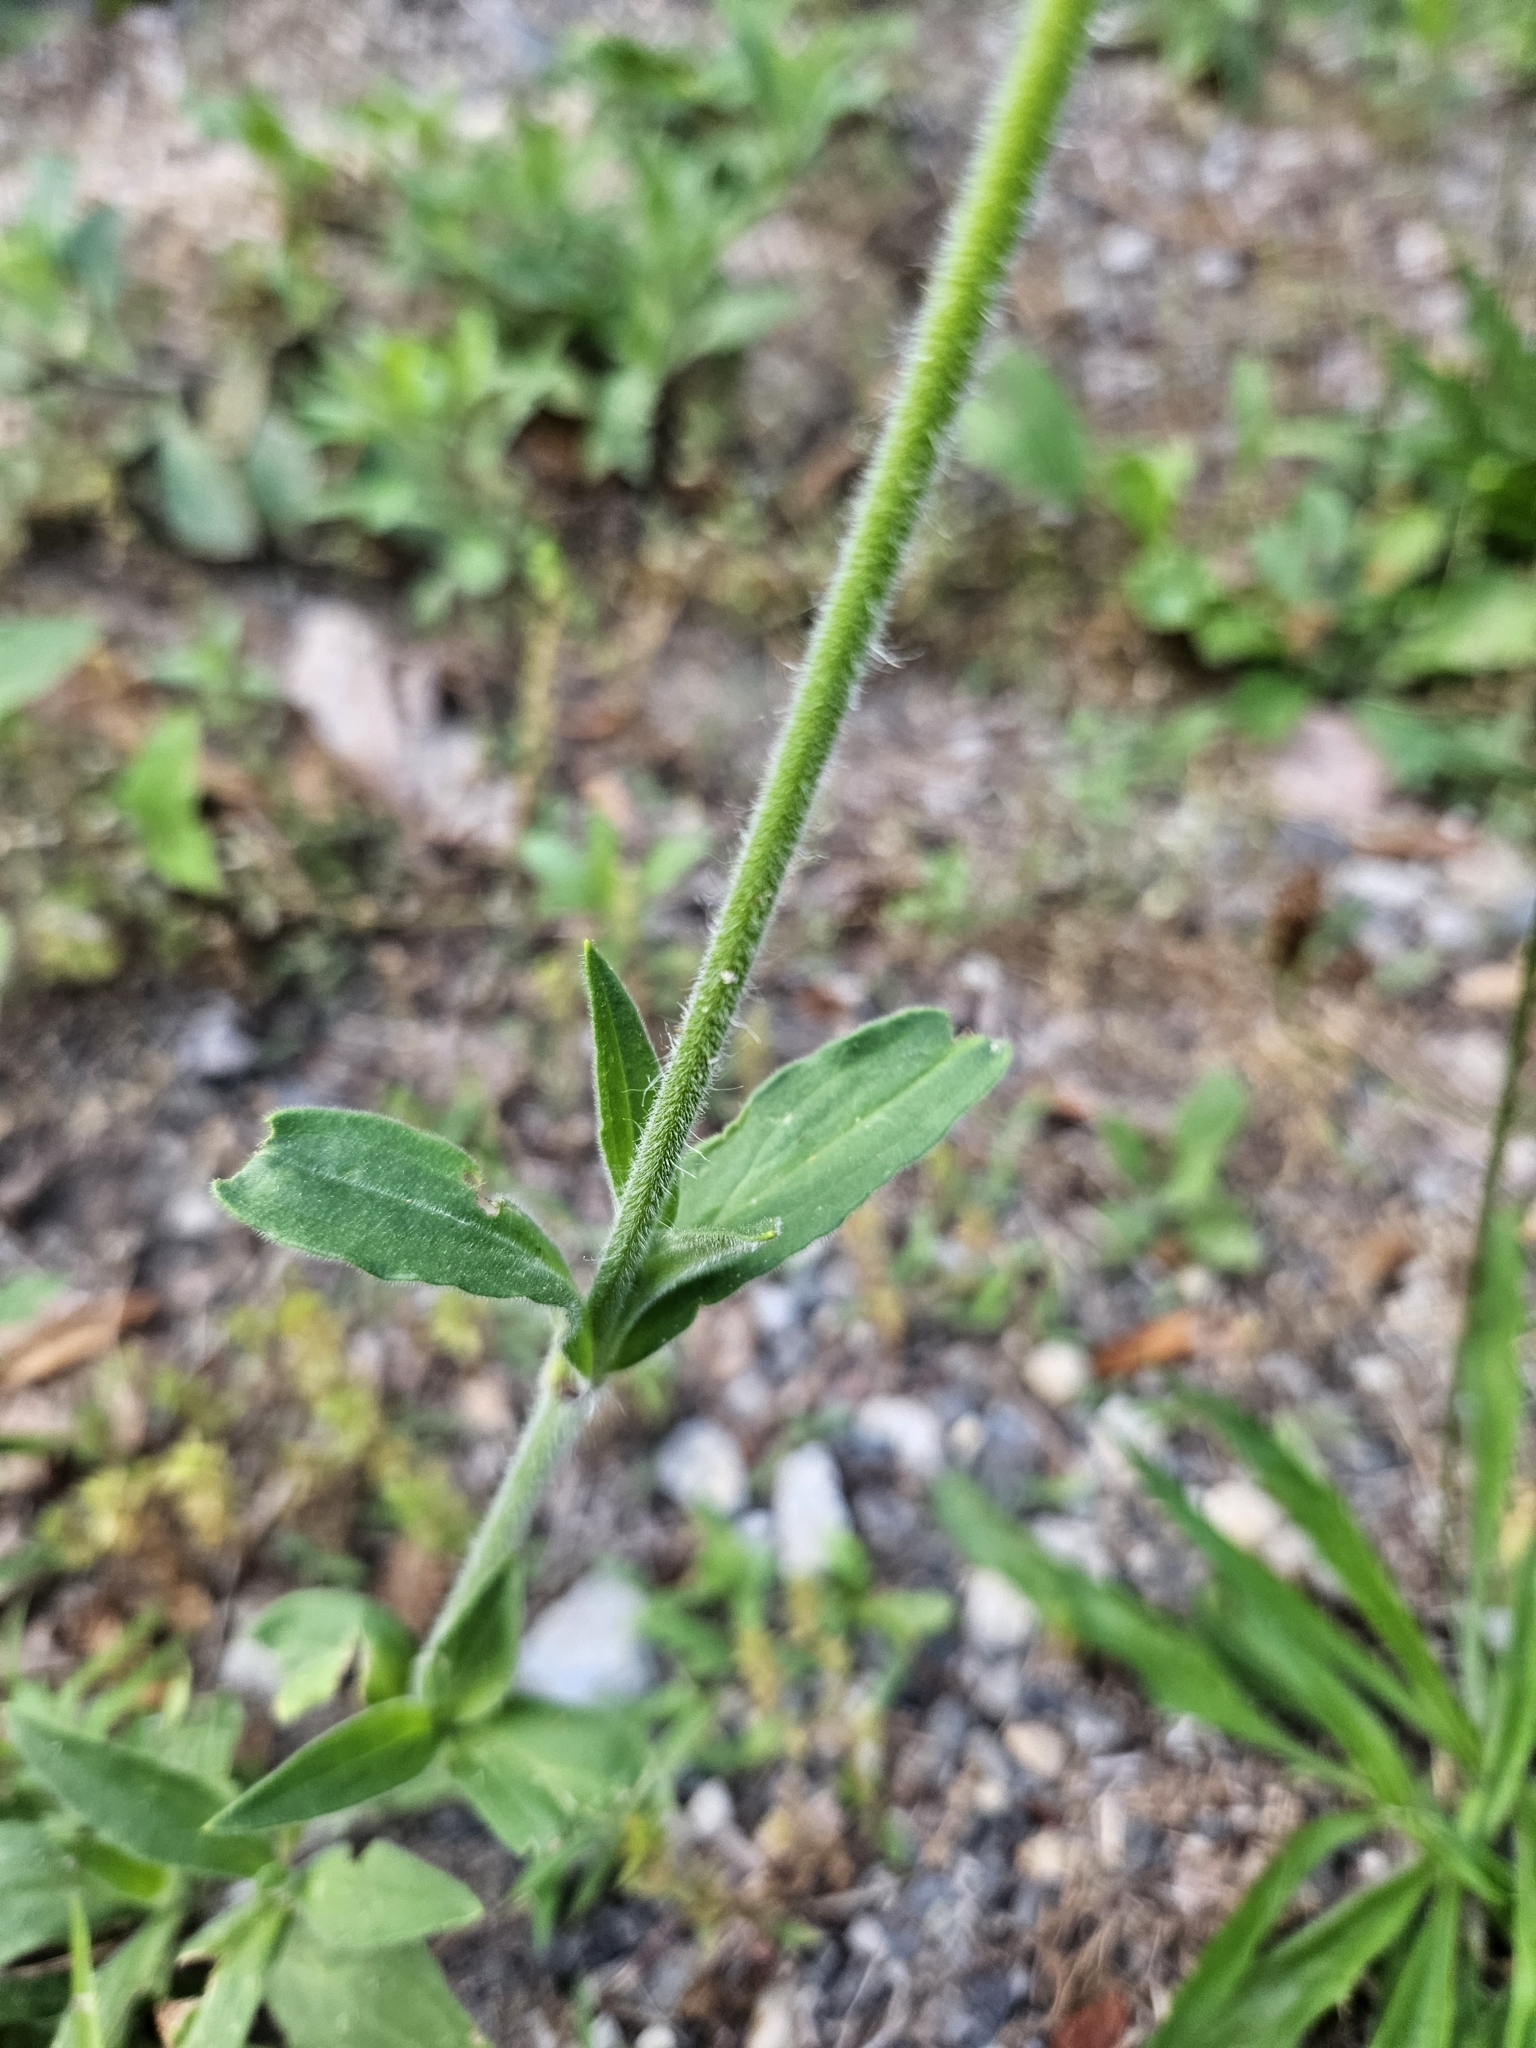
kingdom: Plantae
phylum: Tracheophyta
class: Magnoliopsida
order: Caryophyllales
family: Caryophyllaceae
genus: Silene
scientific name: Silene latifolia
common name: White campion
